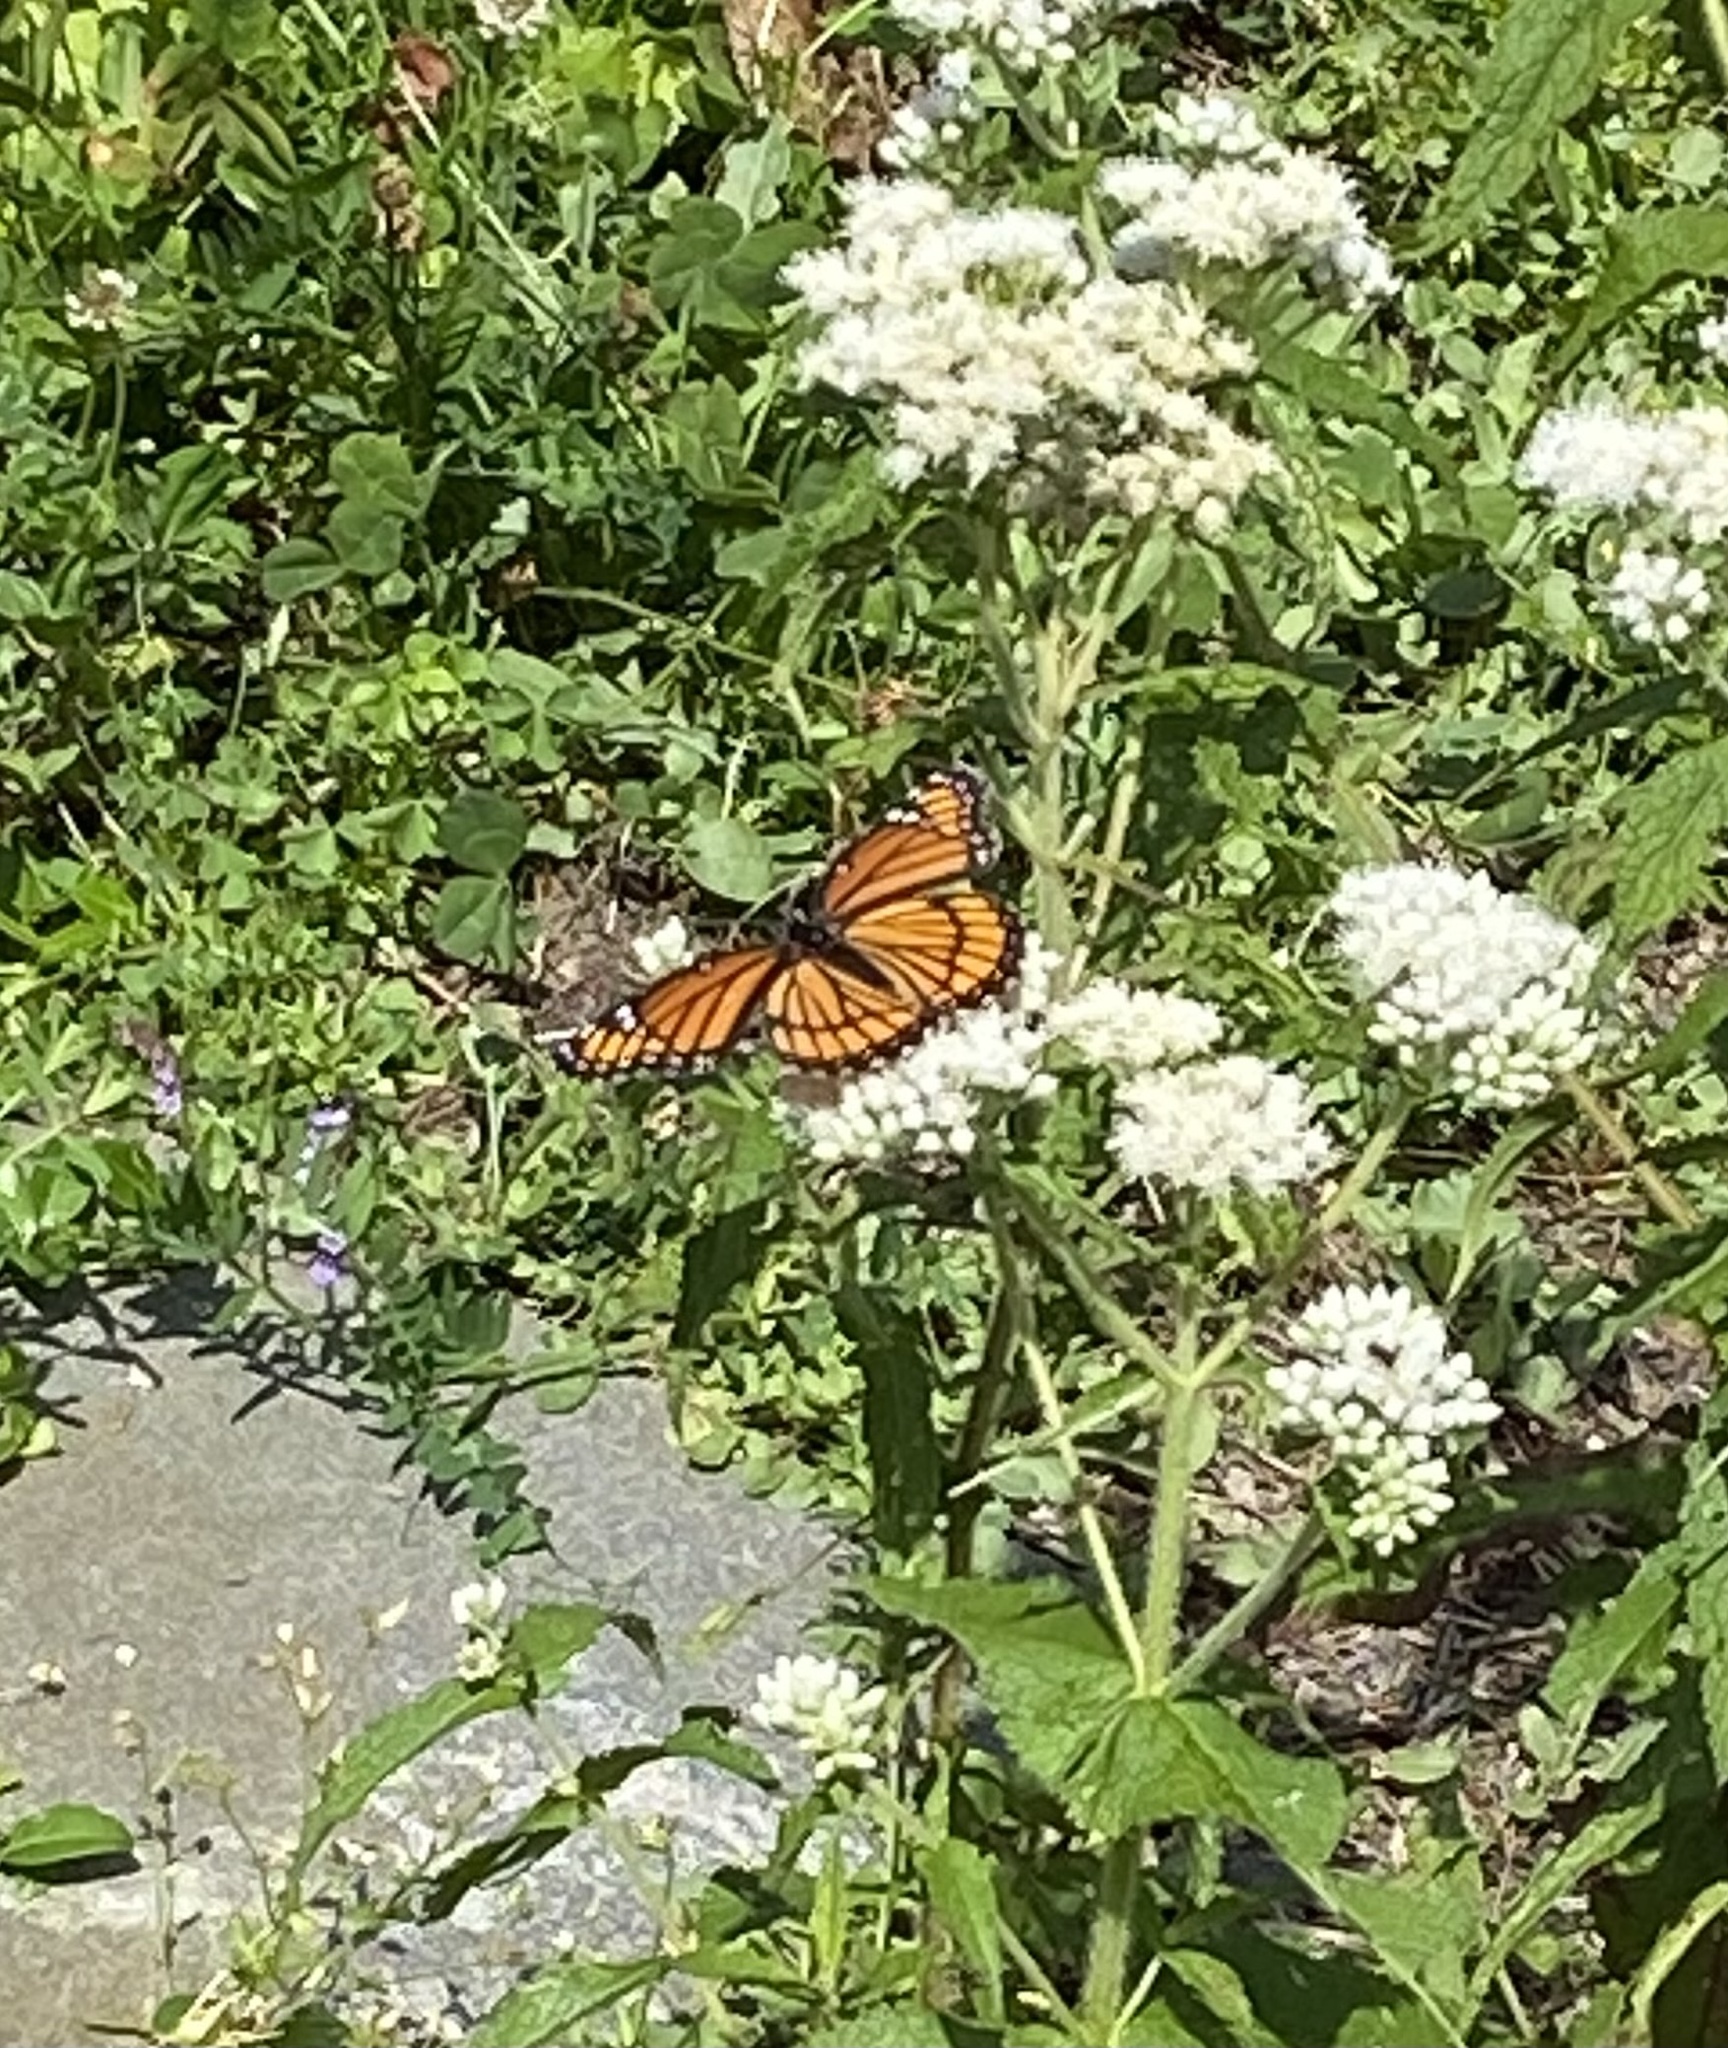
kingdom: Animalia
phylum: Arthropoda
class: Insecta
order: Lepidoptera
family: Nymphalidae
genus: Limenitis
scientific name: Limenitis archippus
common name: Viceroy
